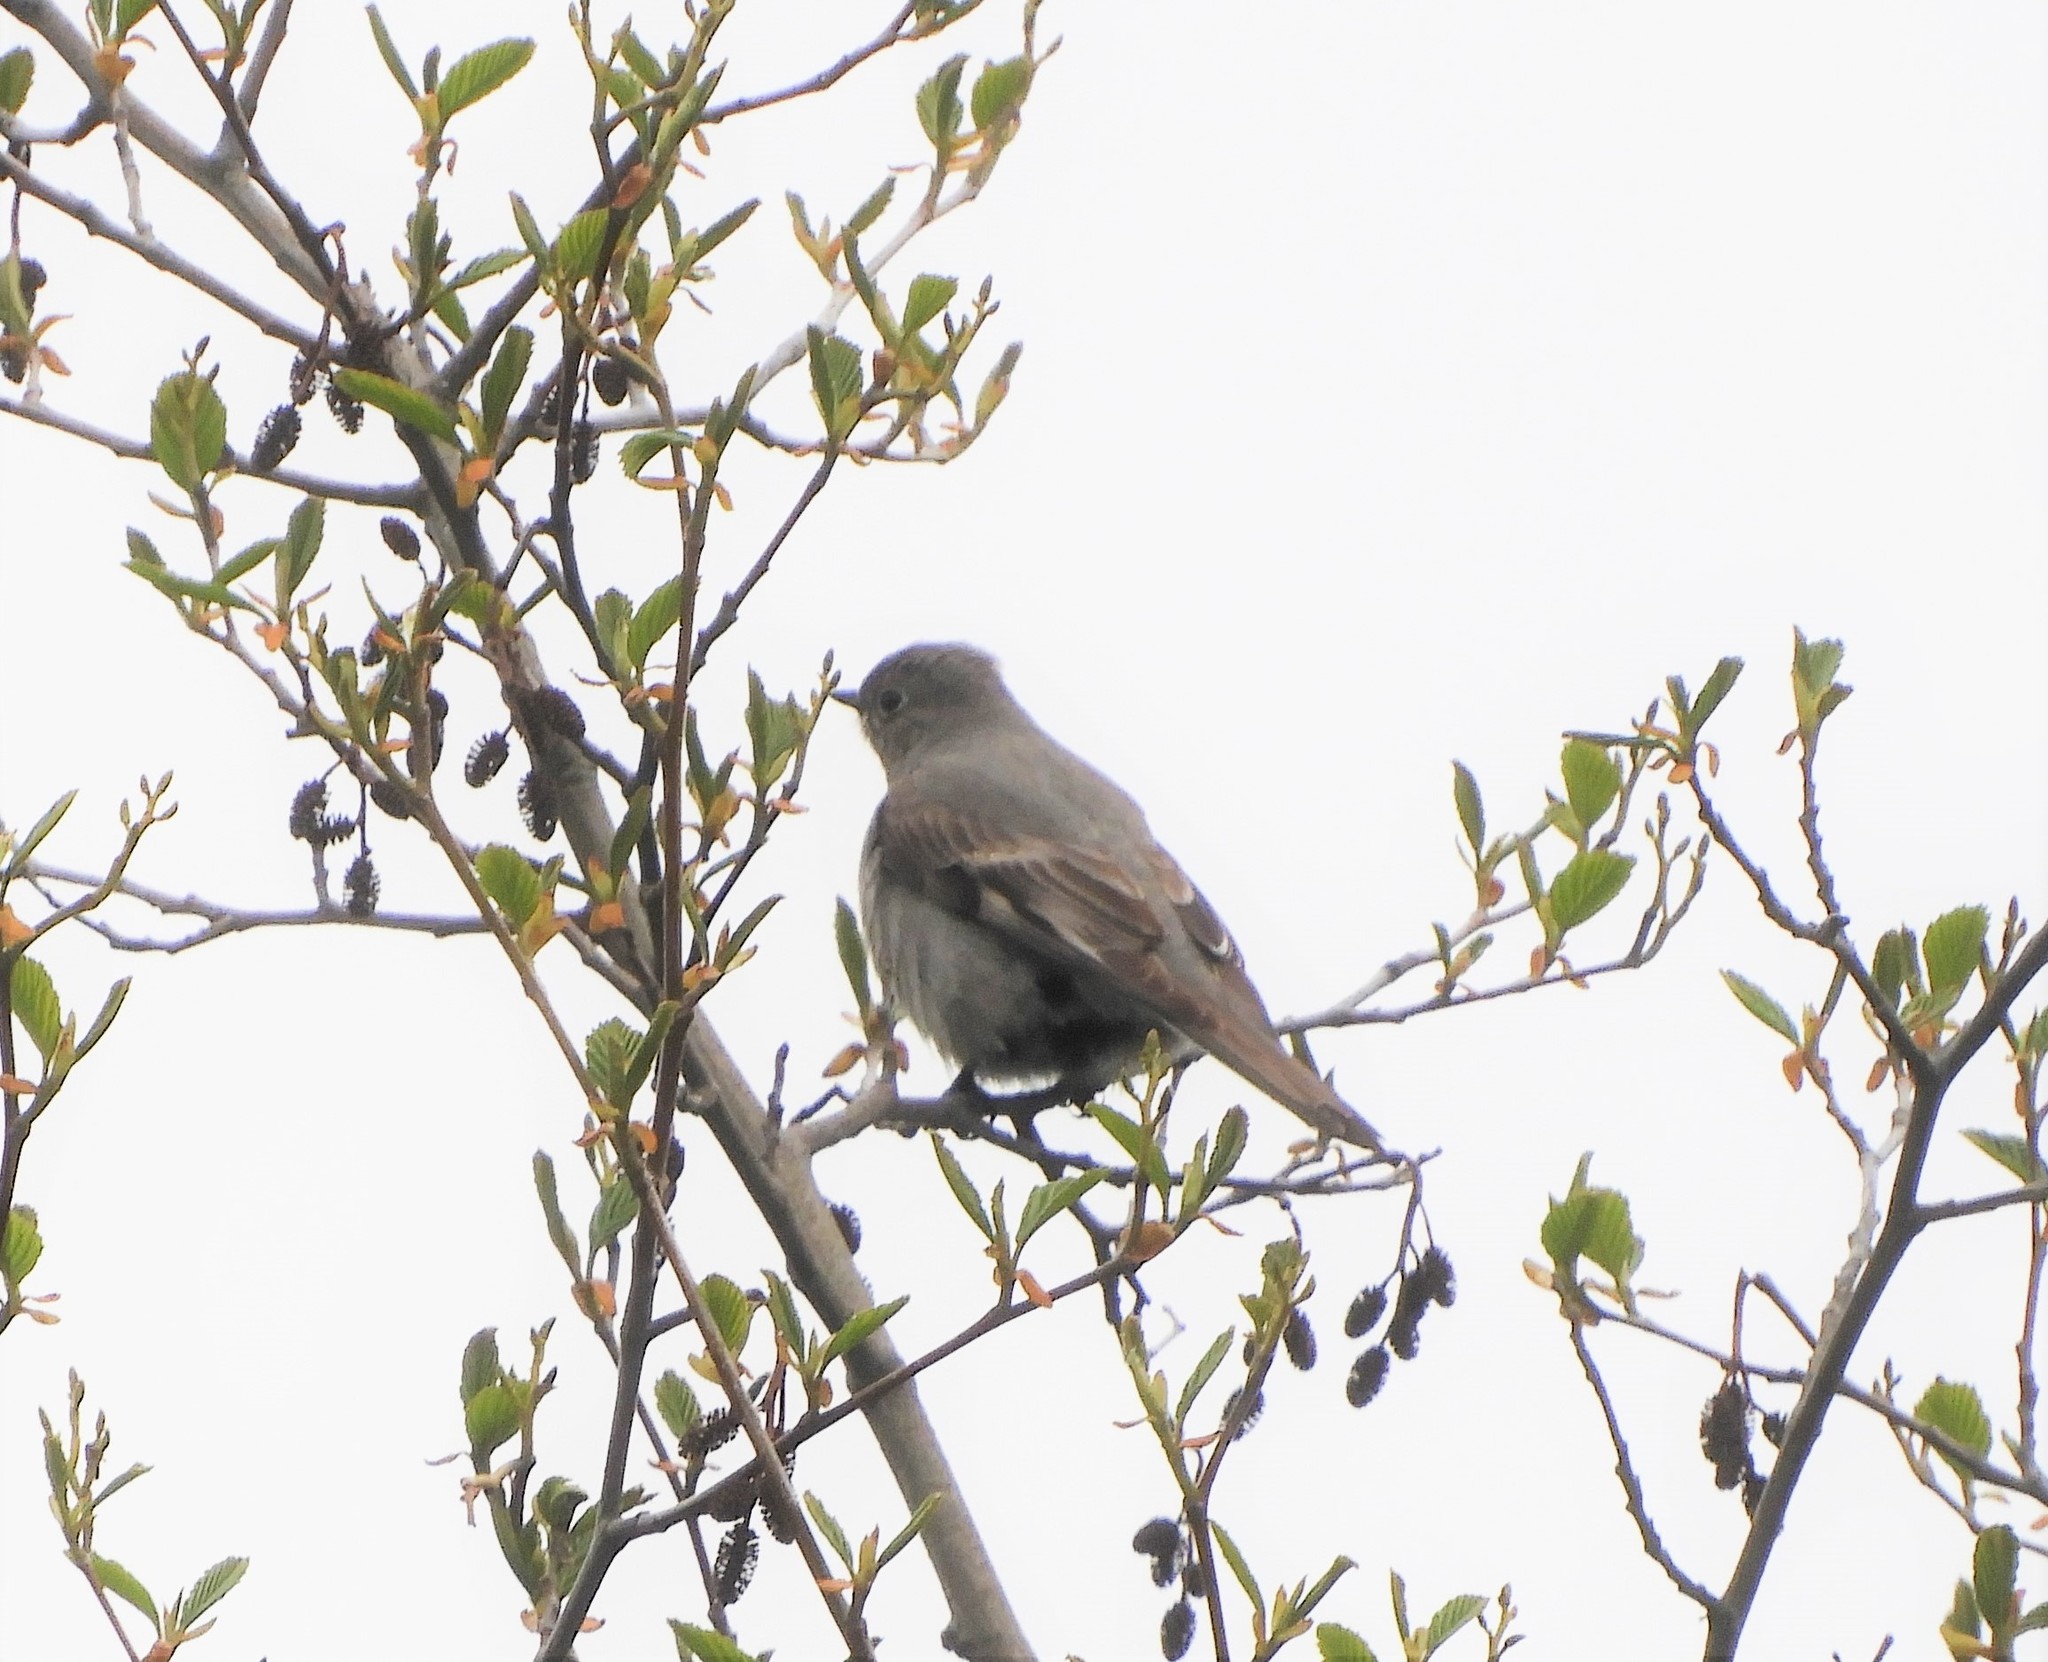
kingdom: Animalia
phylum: Chordata
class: Aves
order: Passeriformes
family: Turdidae
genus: Myadestes
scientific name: Myadestes townsendi
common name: Townsend's solitaire
